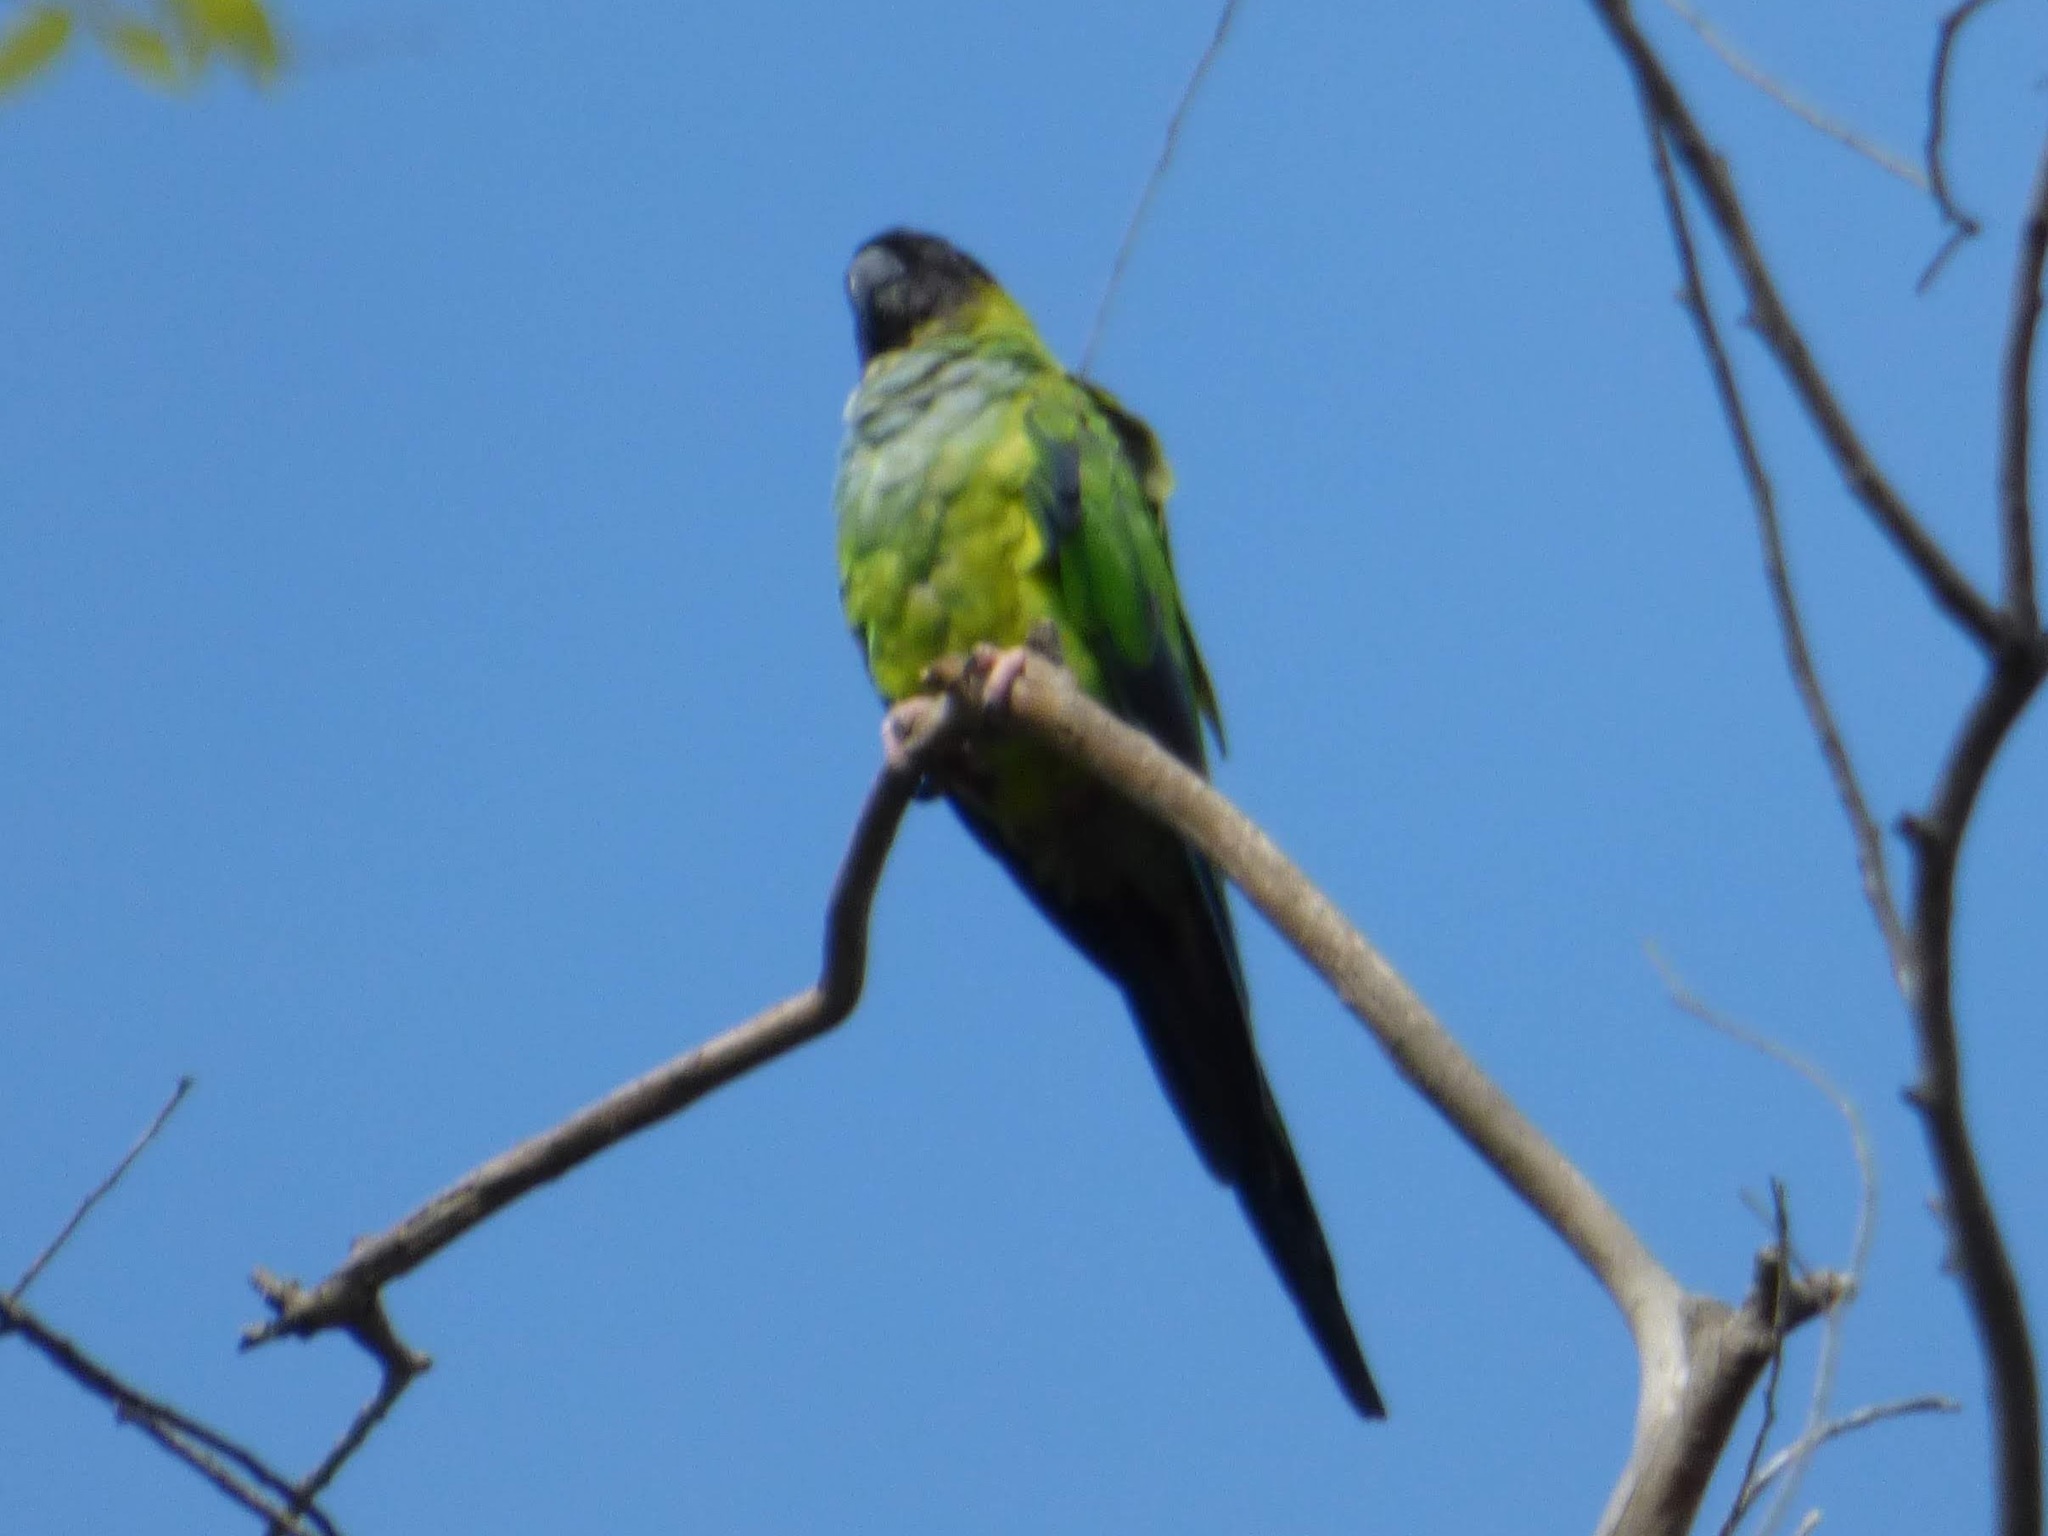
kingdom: Animalia
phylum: Chordata
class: Aves
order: Psittaciformes
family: Psittacidae
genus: Nandayus
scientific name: Nandayus nenday
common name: Nanday parakeet
